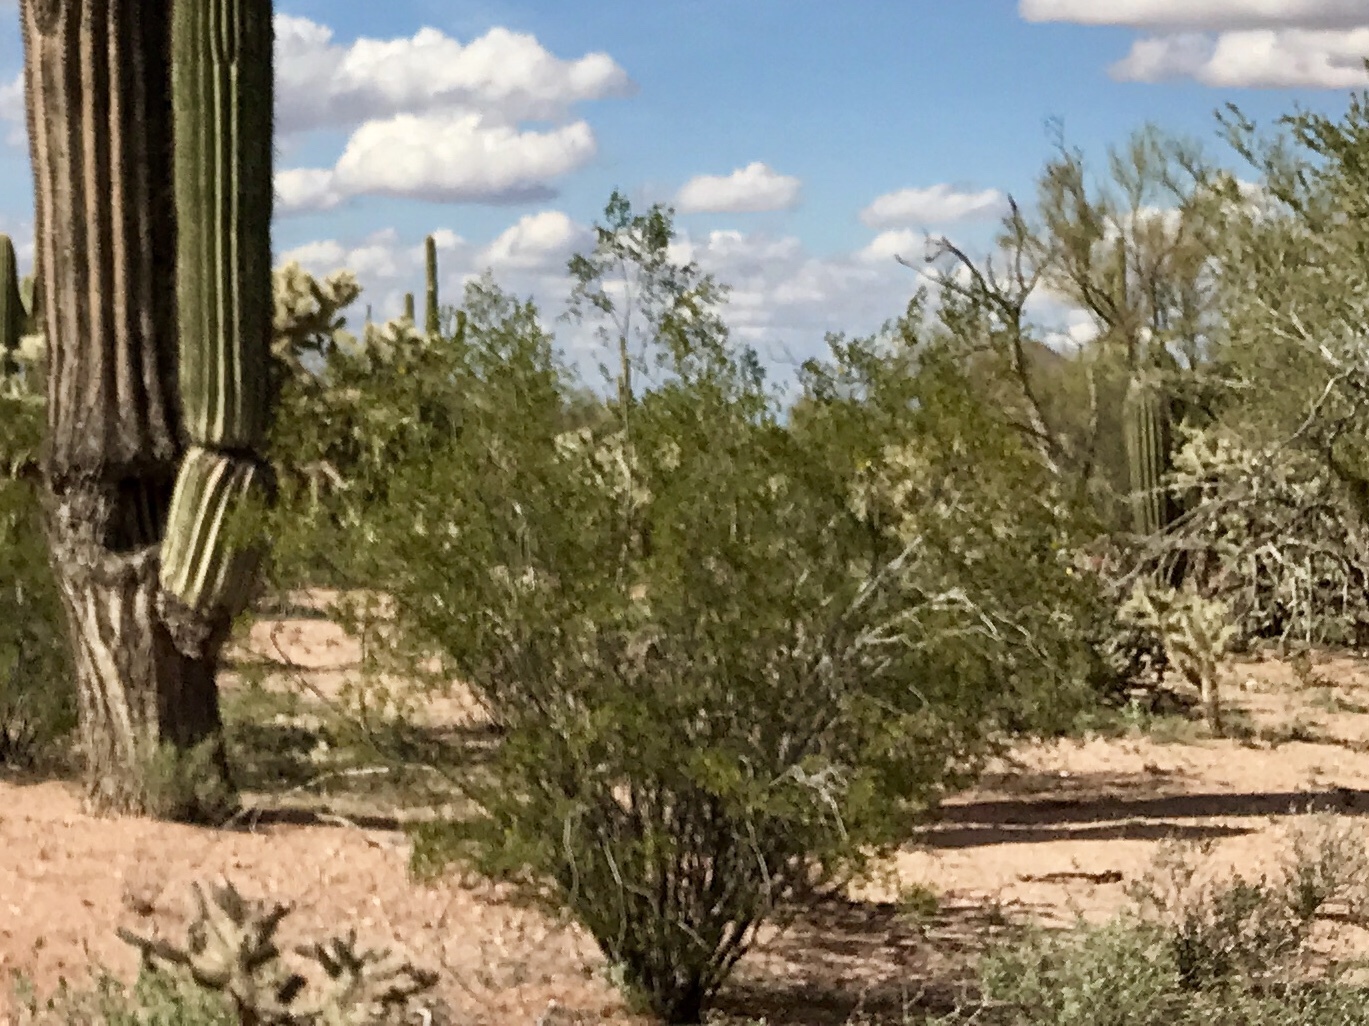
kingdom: Plantae
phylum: Tracheophyta
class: Magnoliopsida
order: Zygophyllales
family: Zygophyllaceae
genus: Larrea
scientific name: Larrea tridentata
